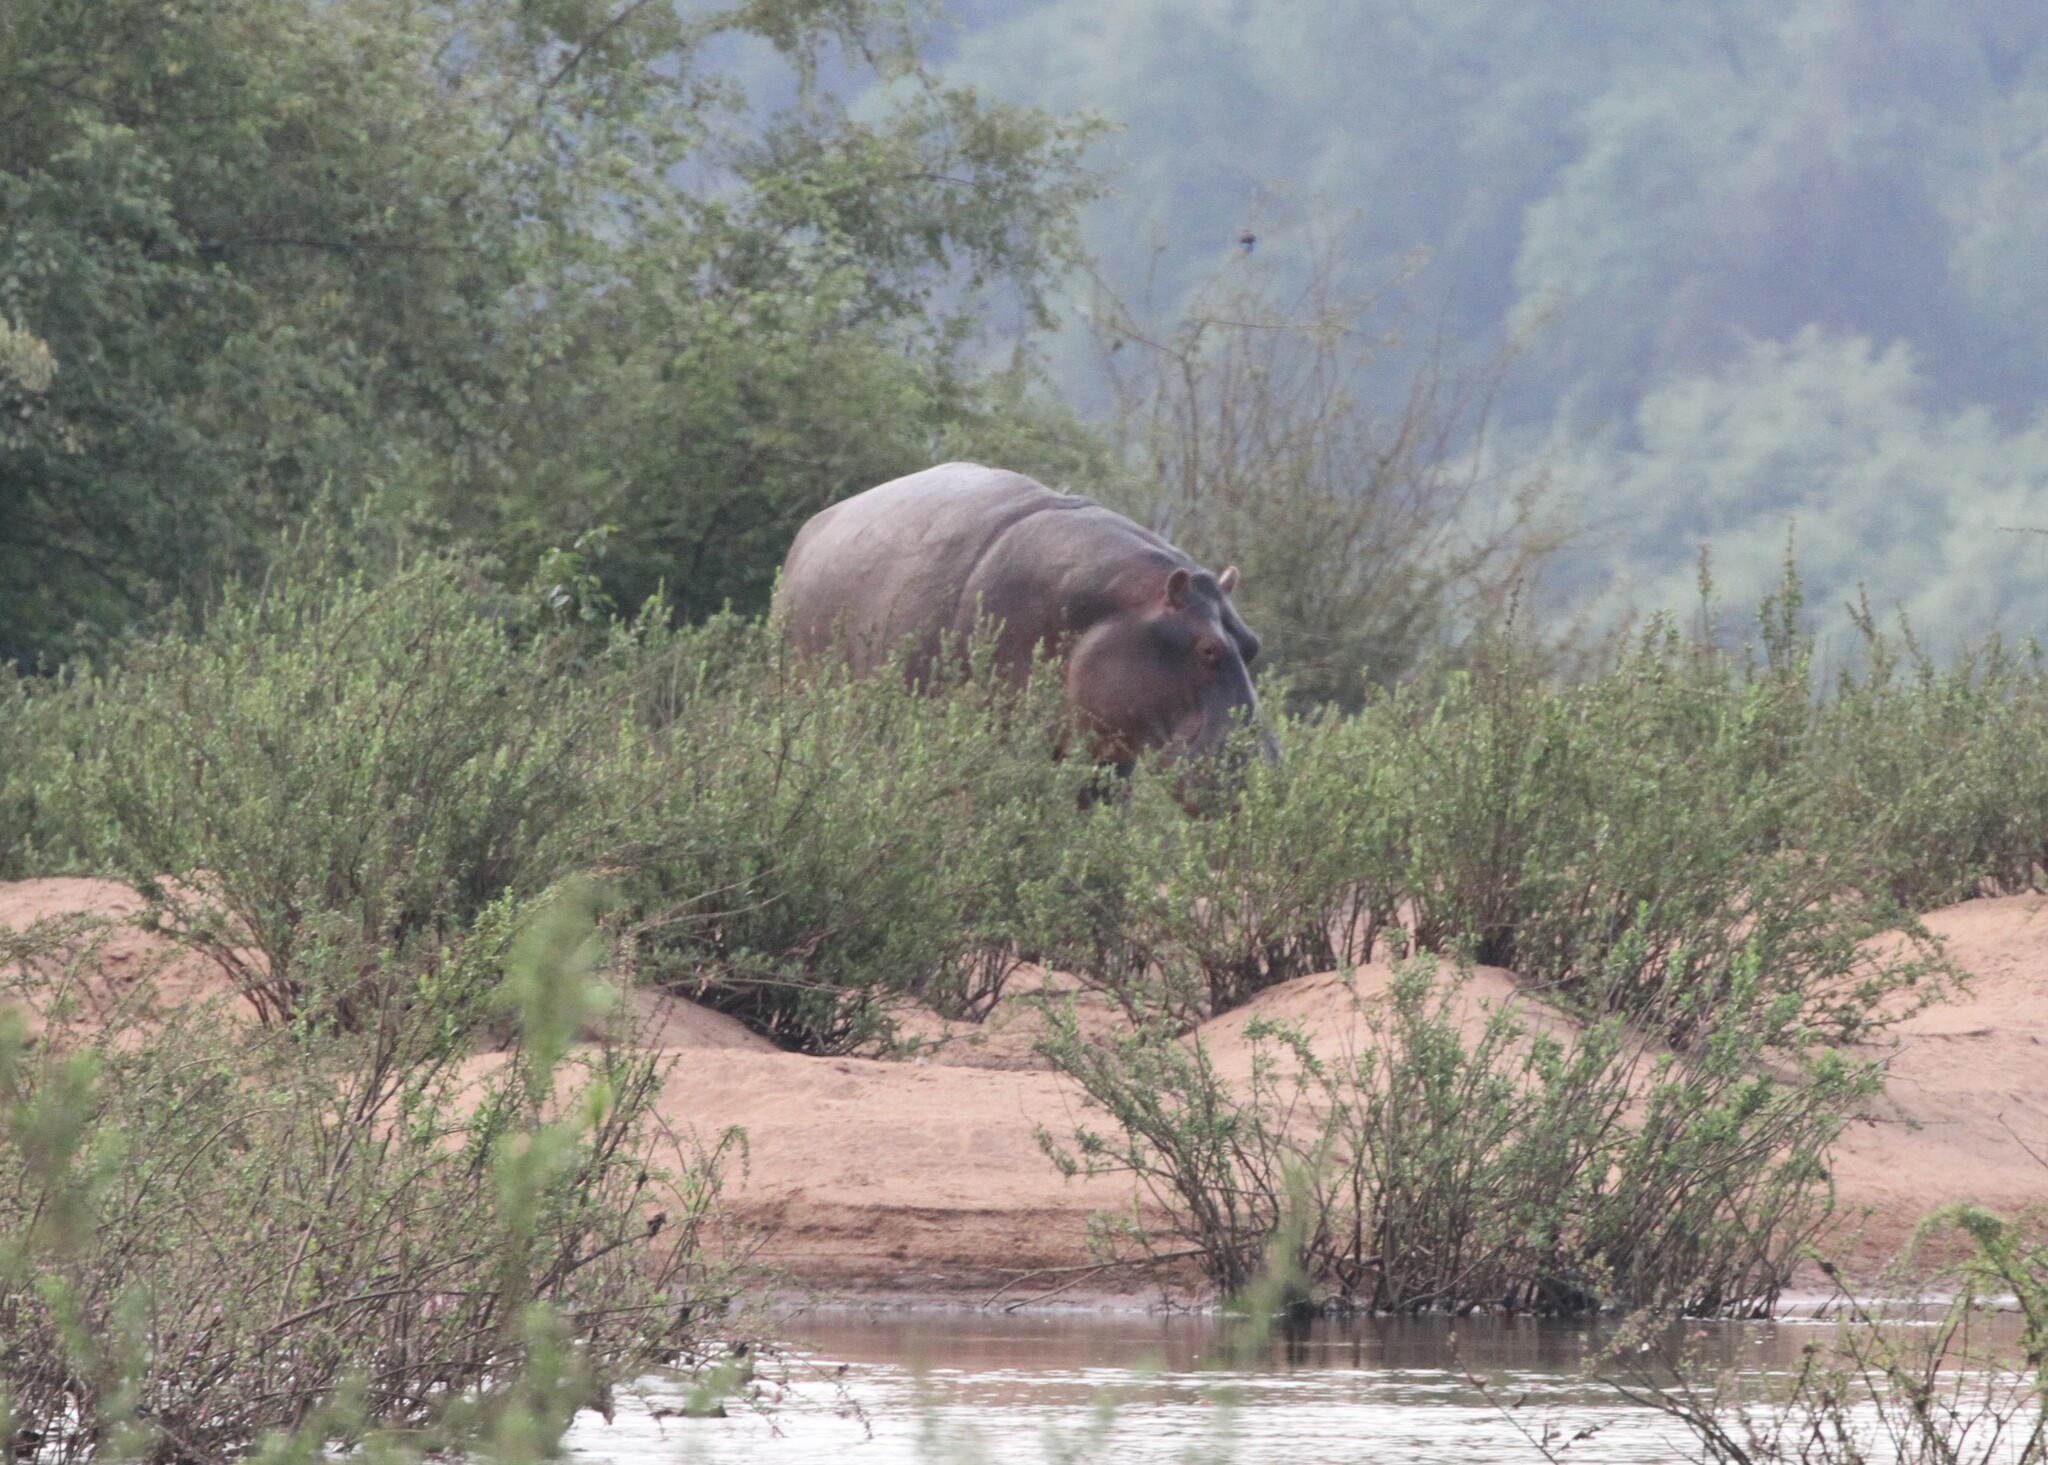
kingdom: Animalia
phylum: Chordata
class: Mammalia
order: Artiodactyla
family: Hippopotamidae
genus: Hippopotamus
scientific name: Hippopotamus amphibius
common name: Common hippopotamus
